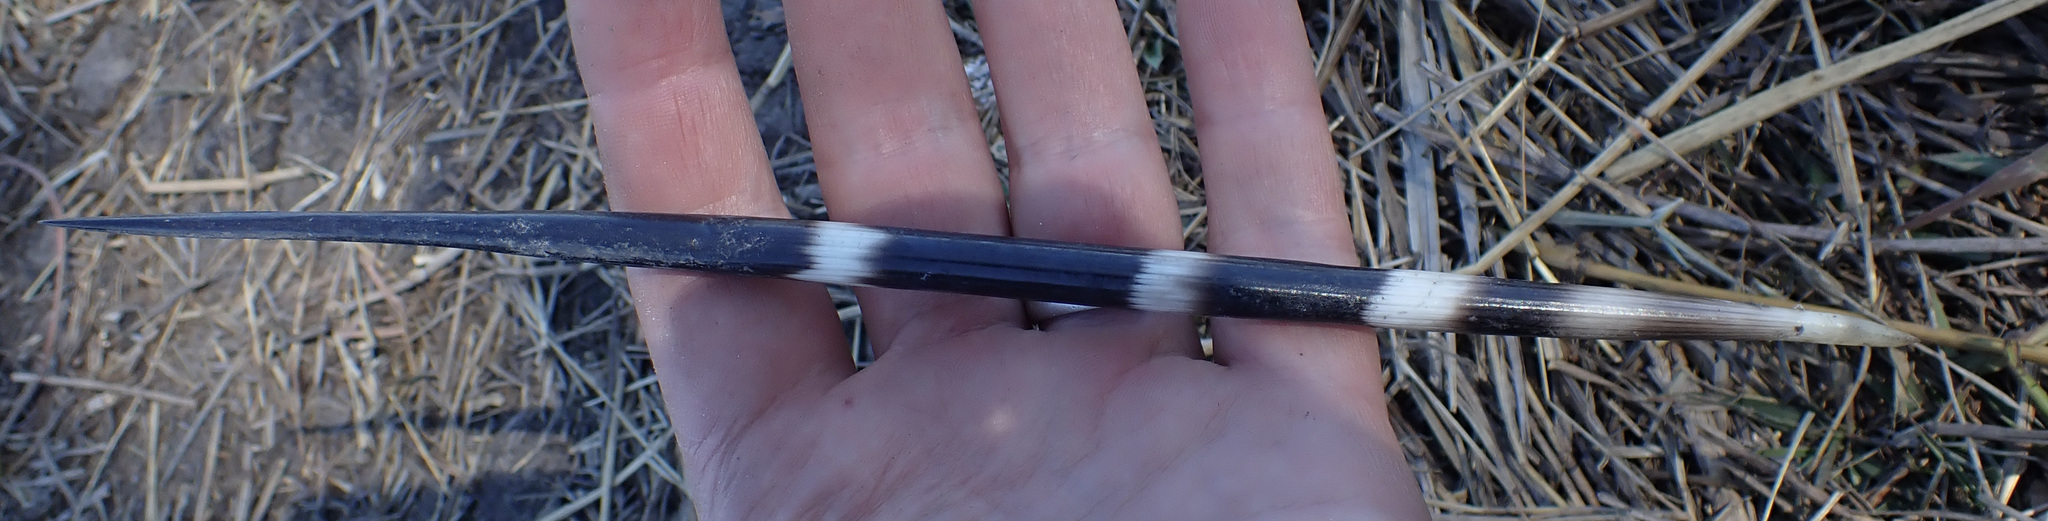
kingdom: Animalia
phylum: Chordata
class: Mammalia
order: Rodentia
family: Hystricidae
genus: Hystrix
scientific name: Hystrix africaeaustralis
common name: Cape porcupine
